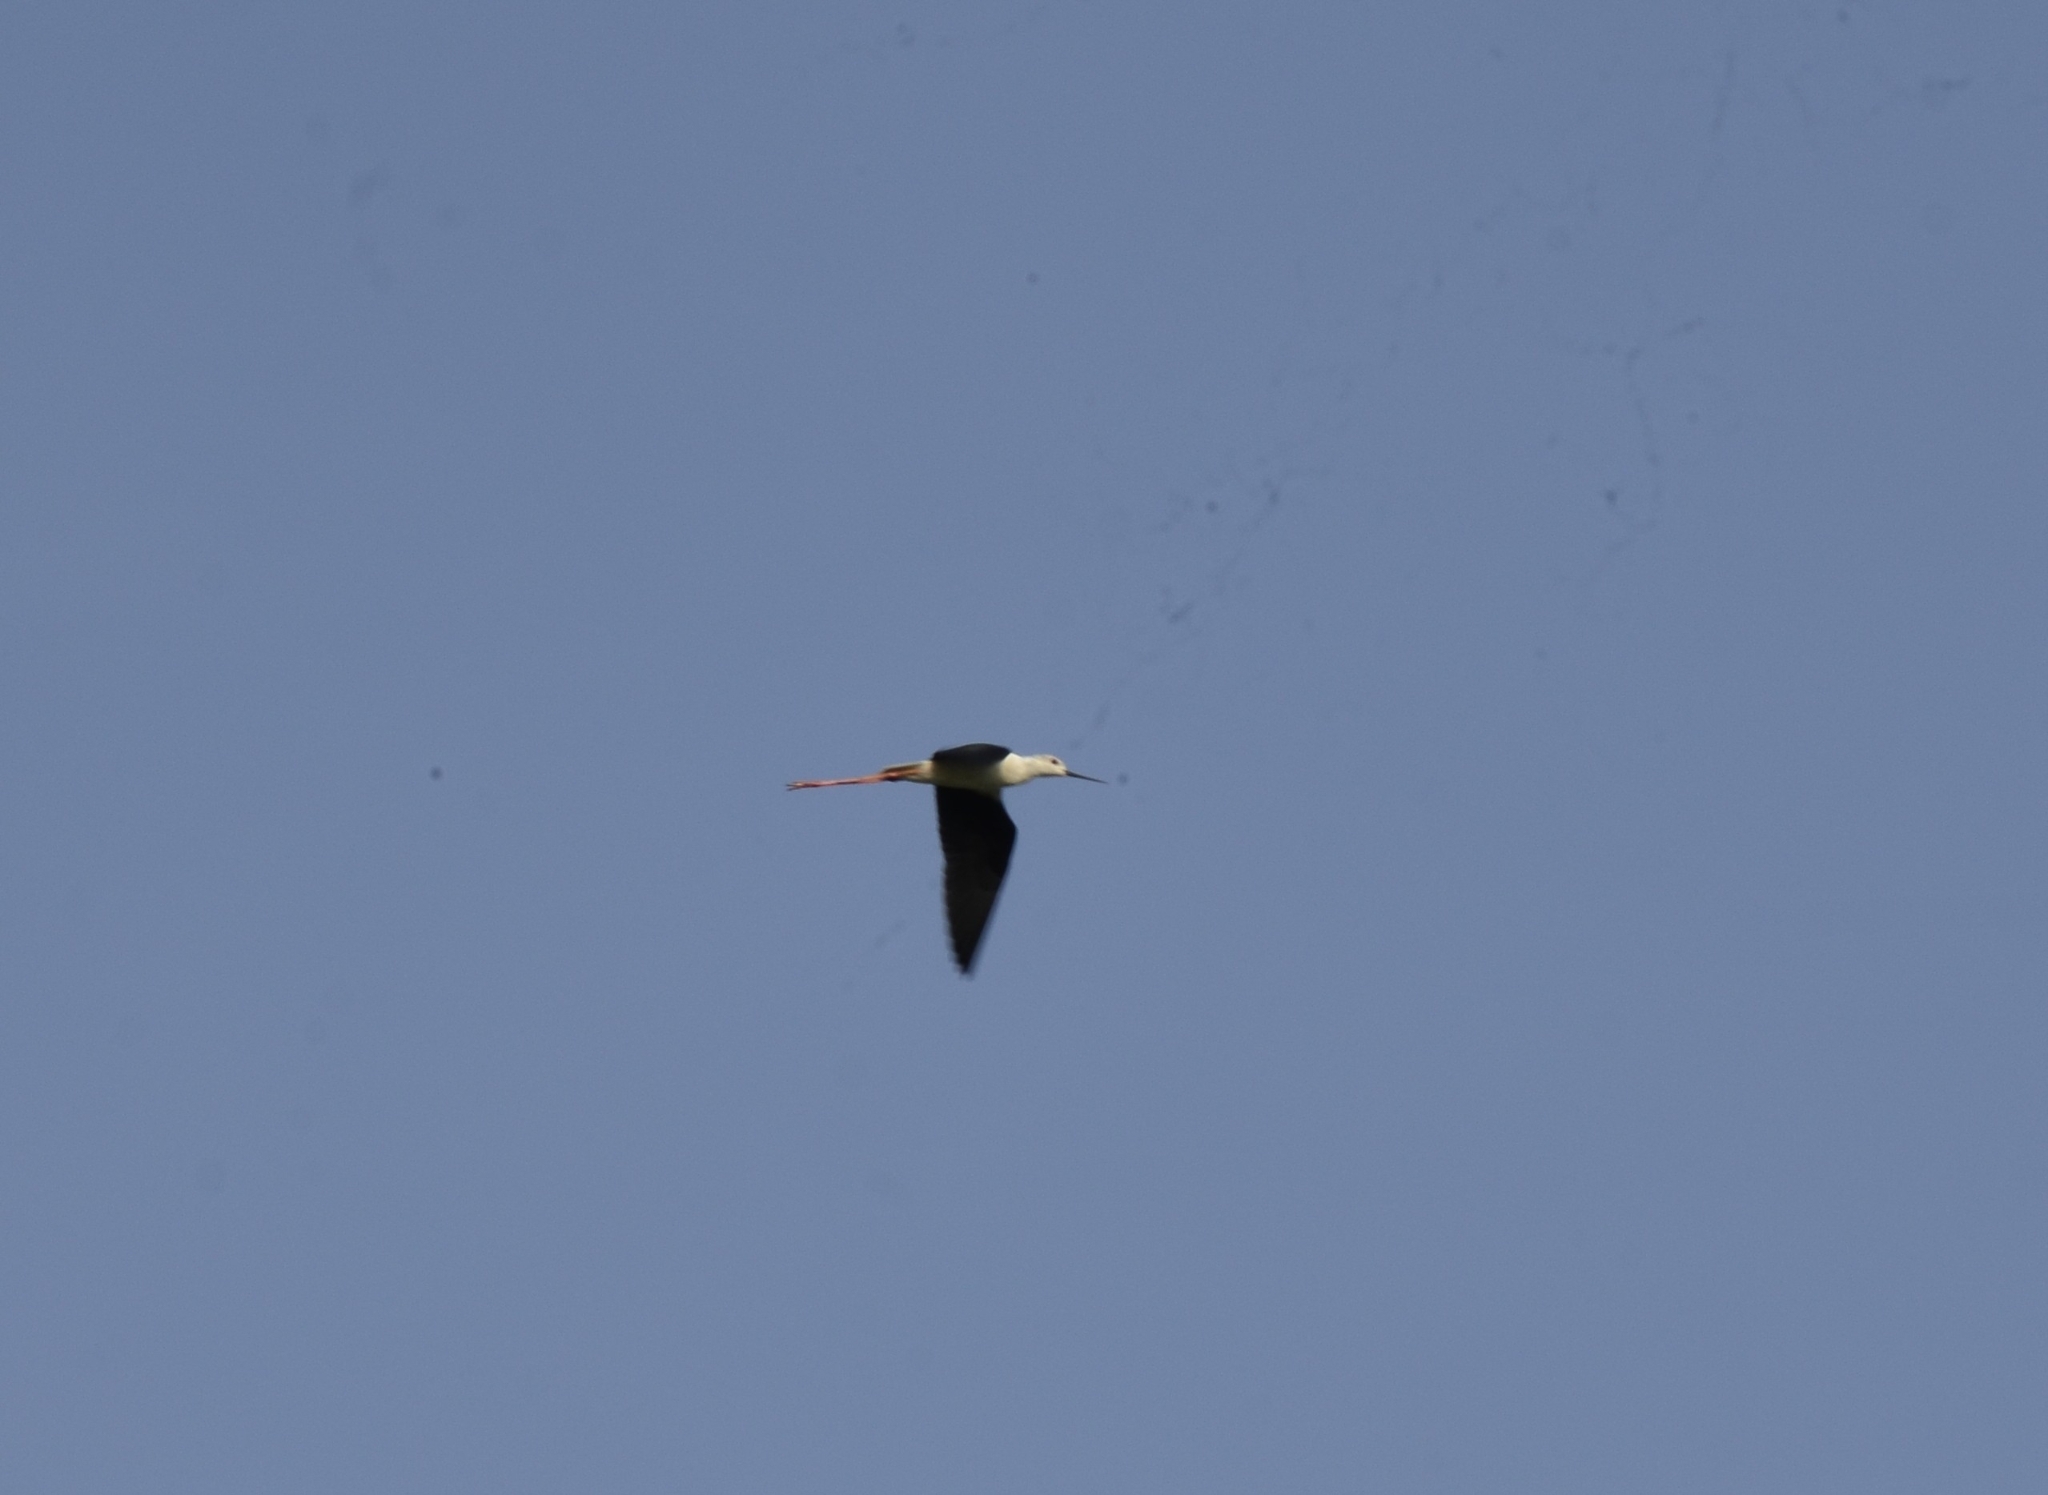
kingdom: Animalia
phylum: Chordata
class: Aves
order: Charadriiformes
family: Recurvirostridae
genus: Himantopus
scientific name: Himantopus himantopus
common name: Black-winged stilt
